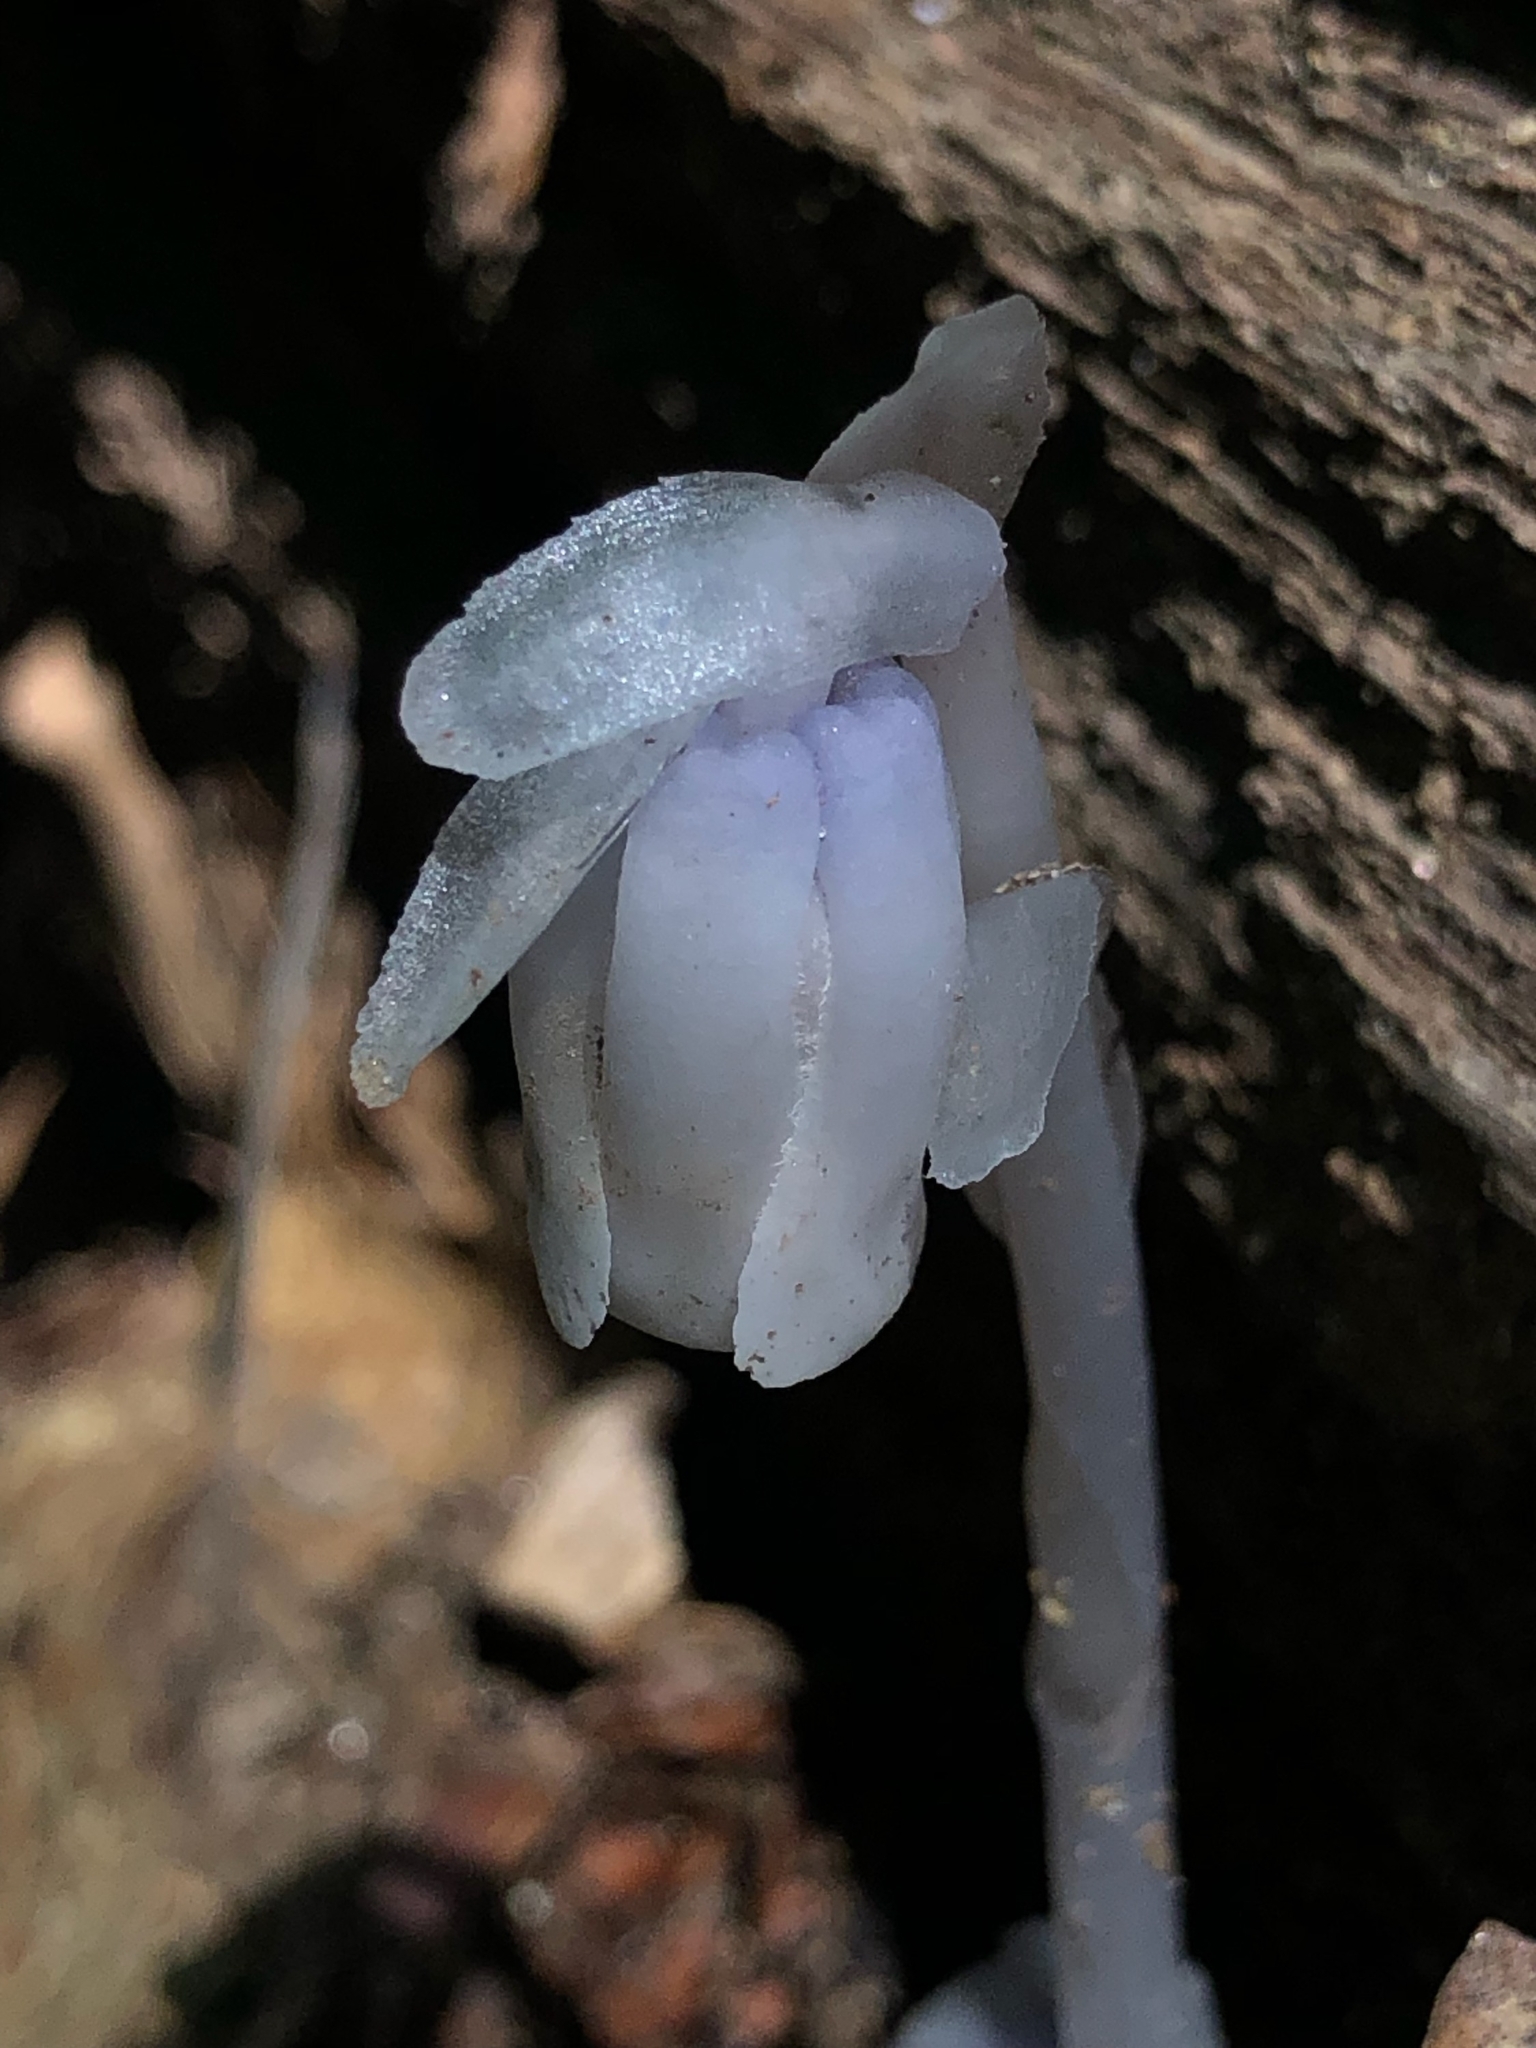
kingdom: Plantae
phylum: Tracheophyta
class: Magnoliopsida
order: Ericales
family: Ericaceae
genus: Monotropa
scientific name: Monotropa uniflora
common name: Convulsion root
